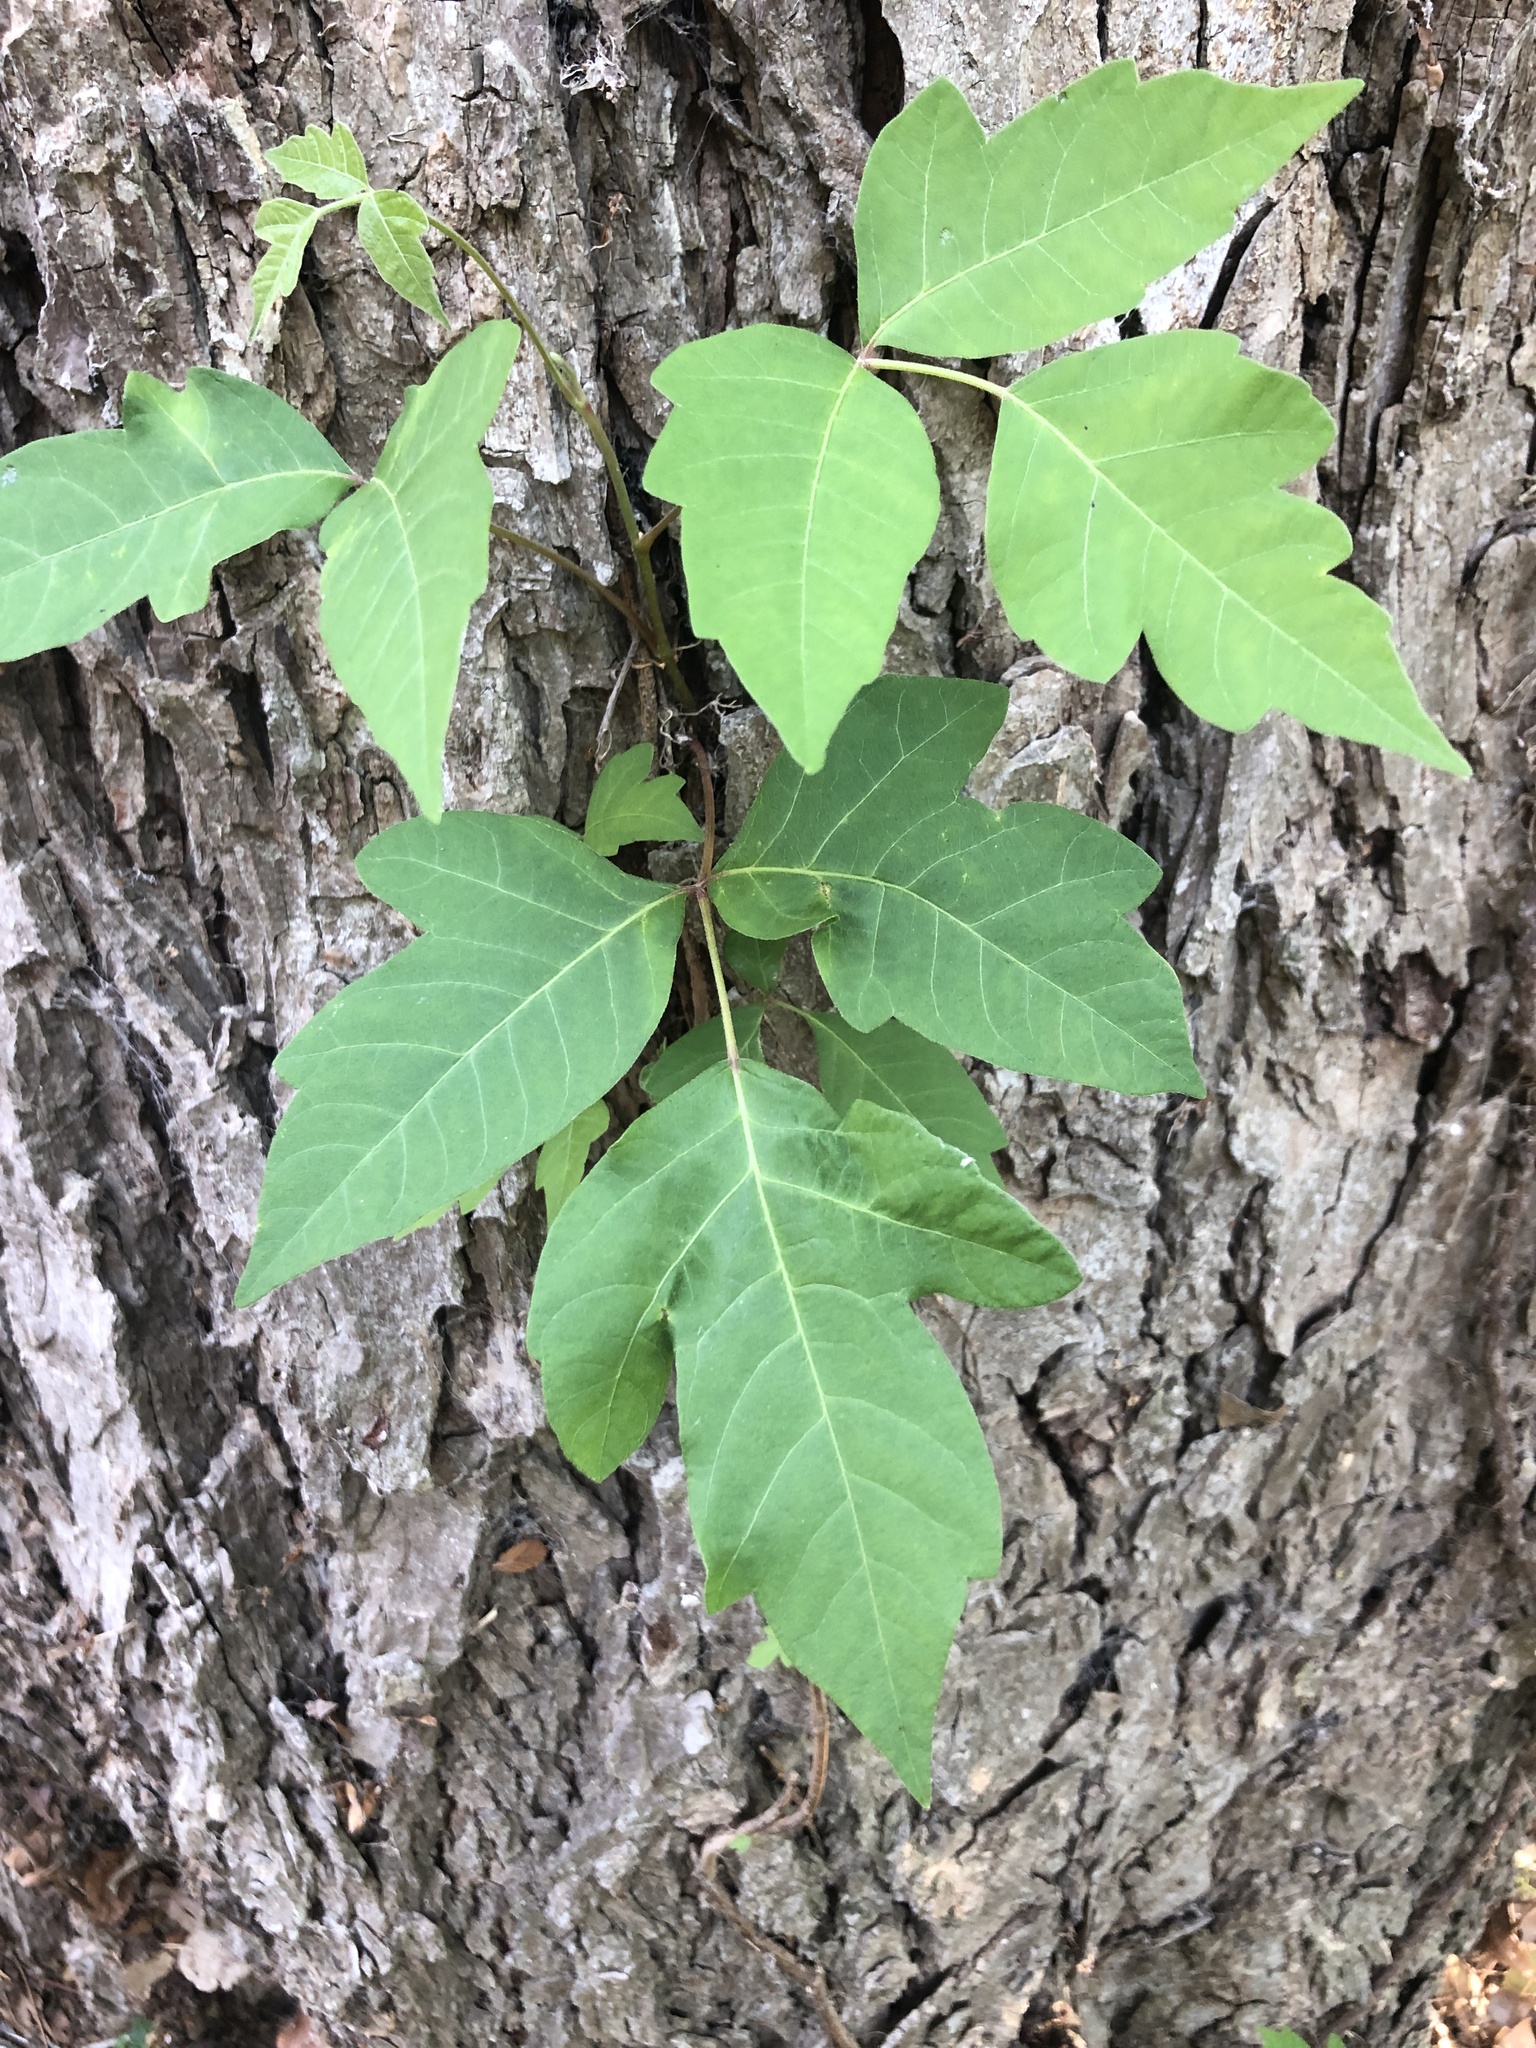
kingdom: Plantae
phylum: Tracheophyta
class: Magnoliopsida
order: Sapindales
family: Anacardiaceae
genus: Toxicodendron
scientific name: Toxicodendron radicans
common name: Poison ivy
